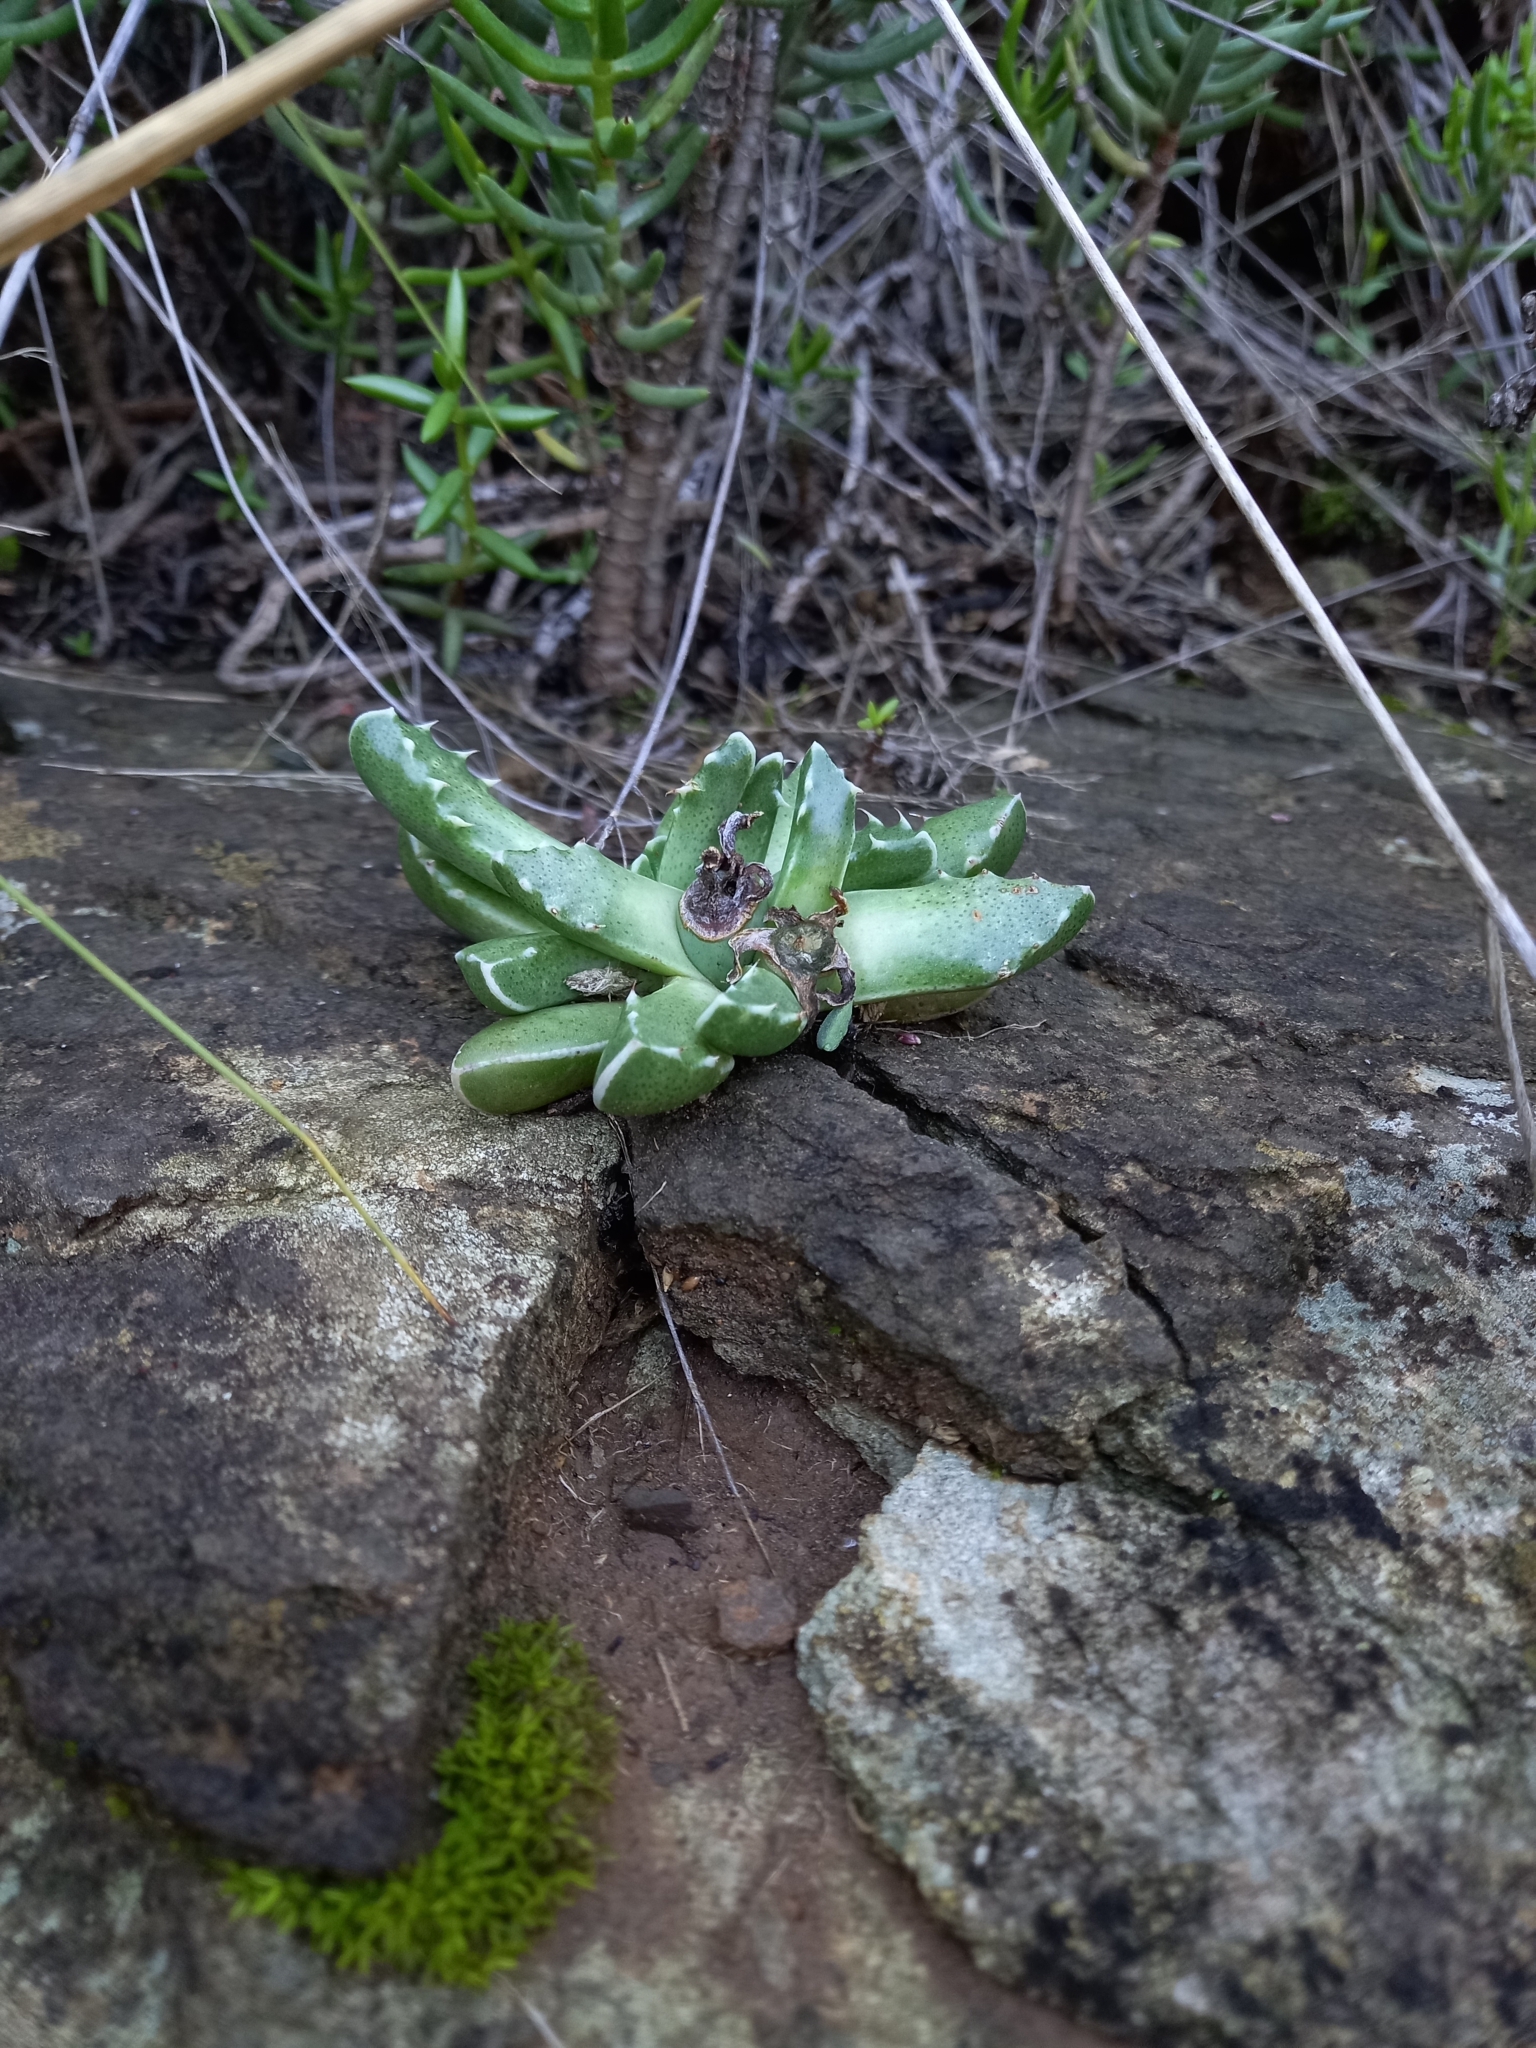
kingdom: Plantae
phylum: Tracheophyta
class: Magnoliopsida
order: Caryophyllales
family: Aizoaceae
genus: Faucaria
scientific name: Faucaria bosscheana
